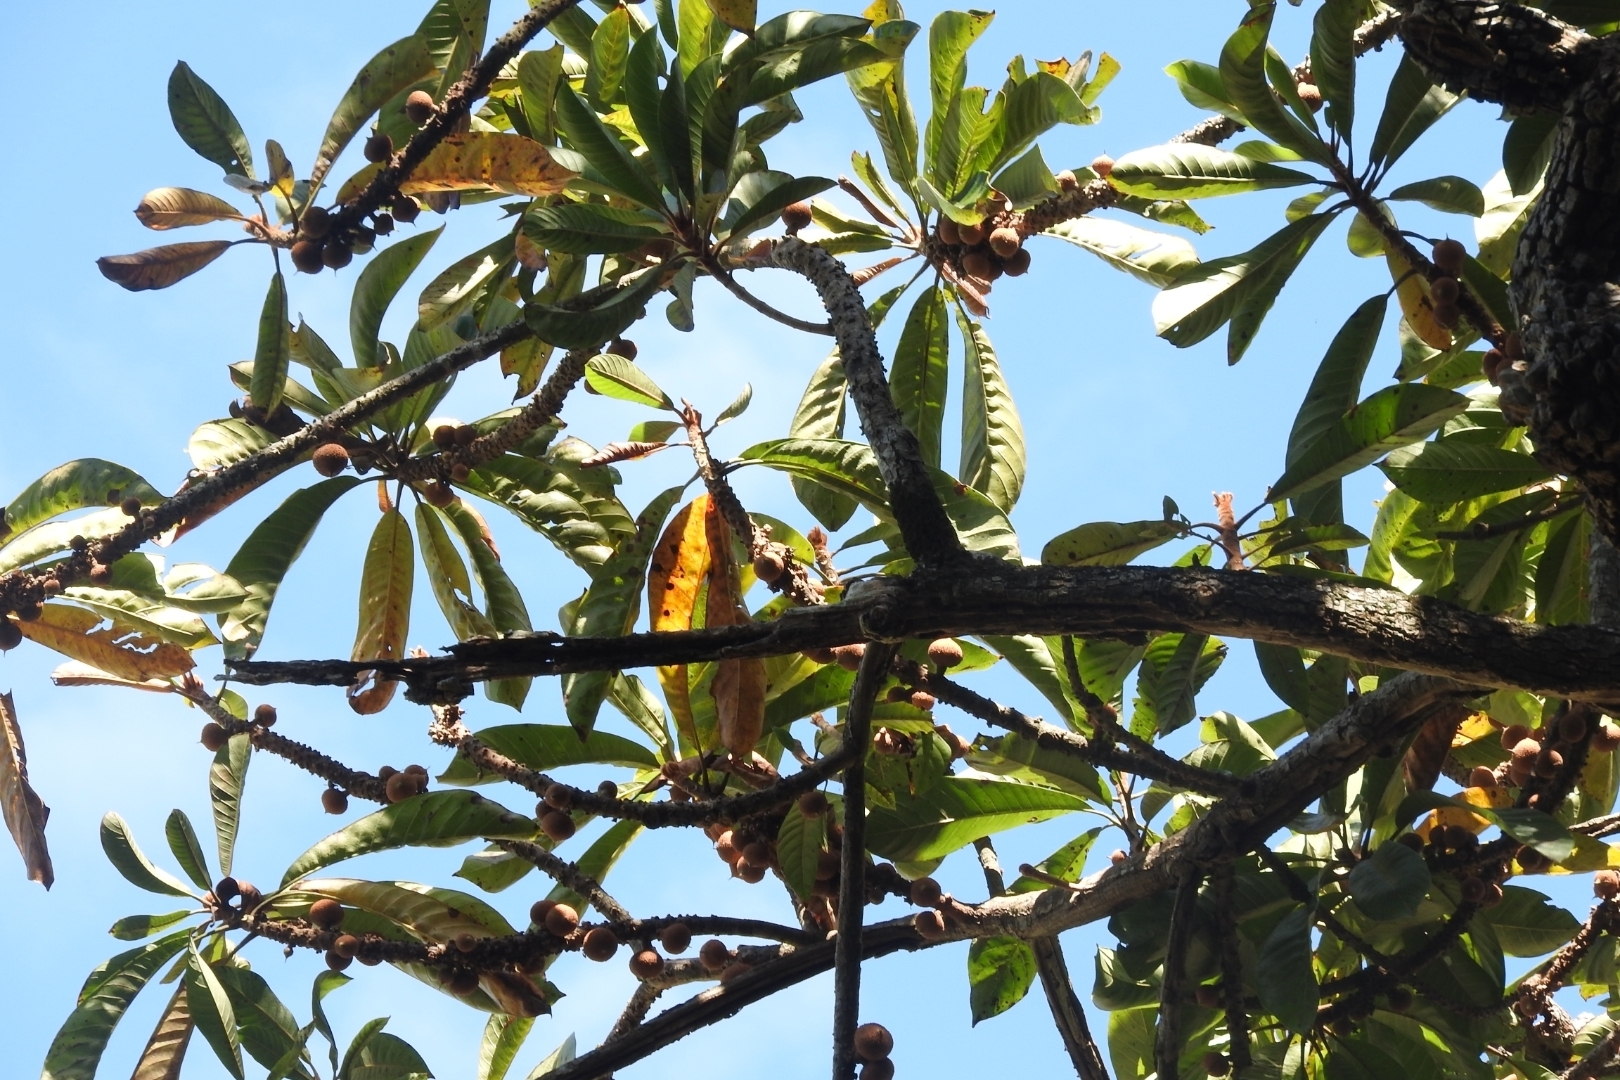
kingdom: Plantae
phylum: Tracheophyta
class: Magnoliopsida
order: Ericales
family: Sapotaceae
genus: Pouteria
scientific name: Pouteria sapota
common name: Mamey
